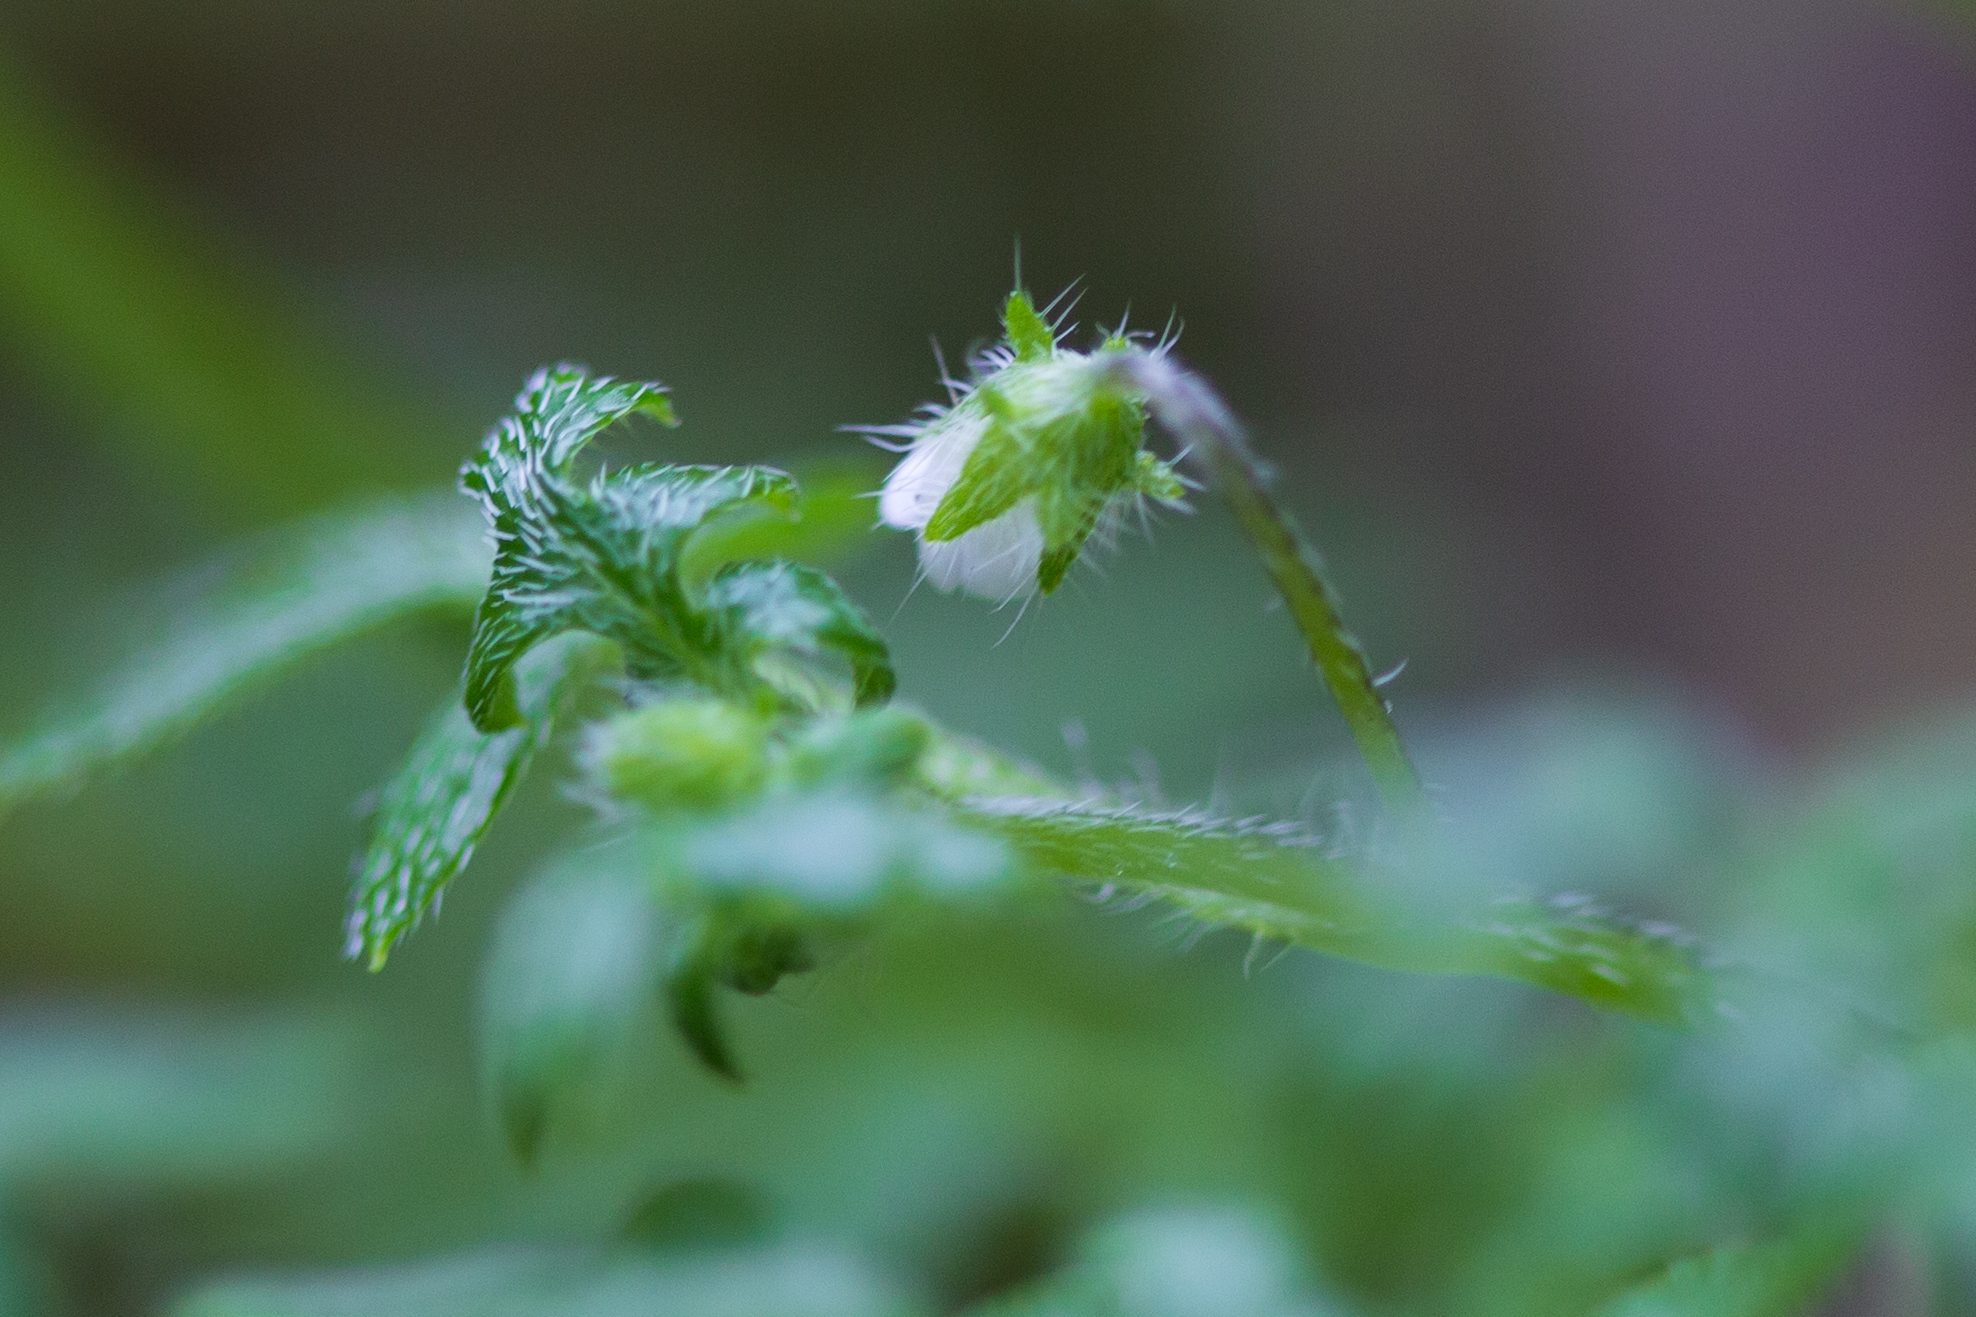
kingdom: Plantae
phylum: Tracheophyta
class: Magnoliopsida
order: Boraginales
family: Hydrophyllaceae
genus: Nemophila
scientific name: Nemophila parviflora
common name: Small-flowered baby-blue-eyes
